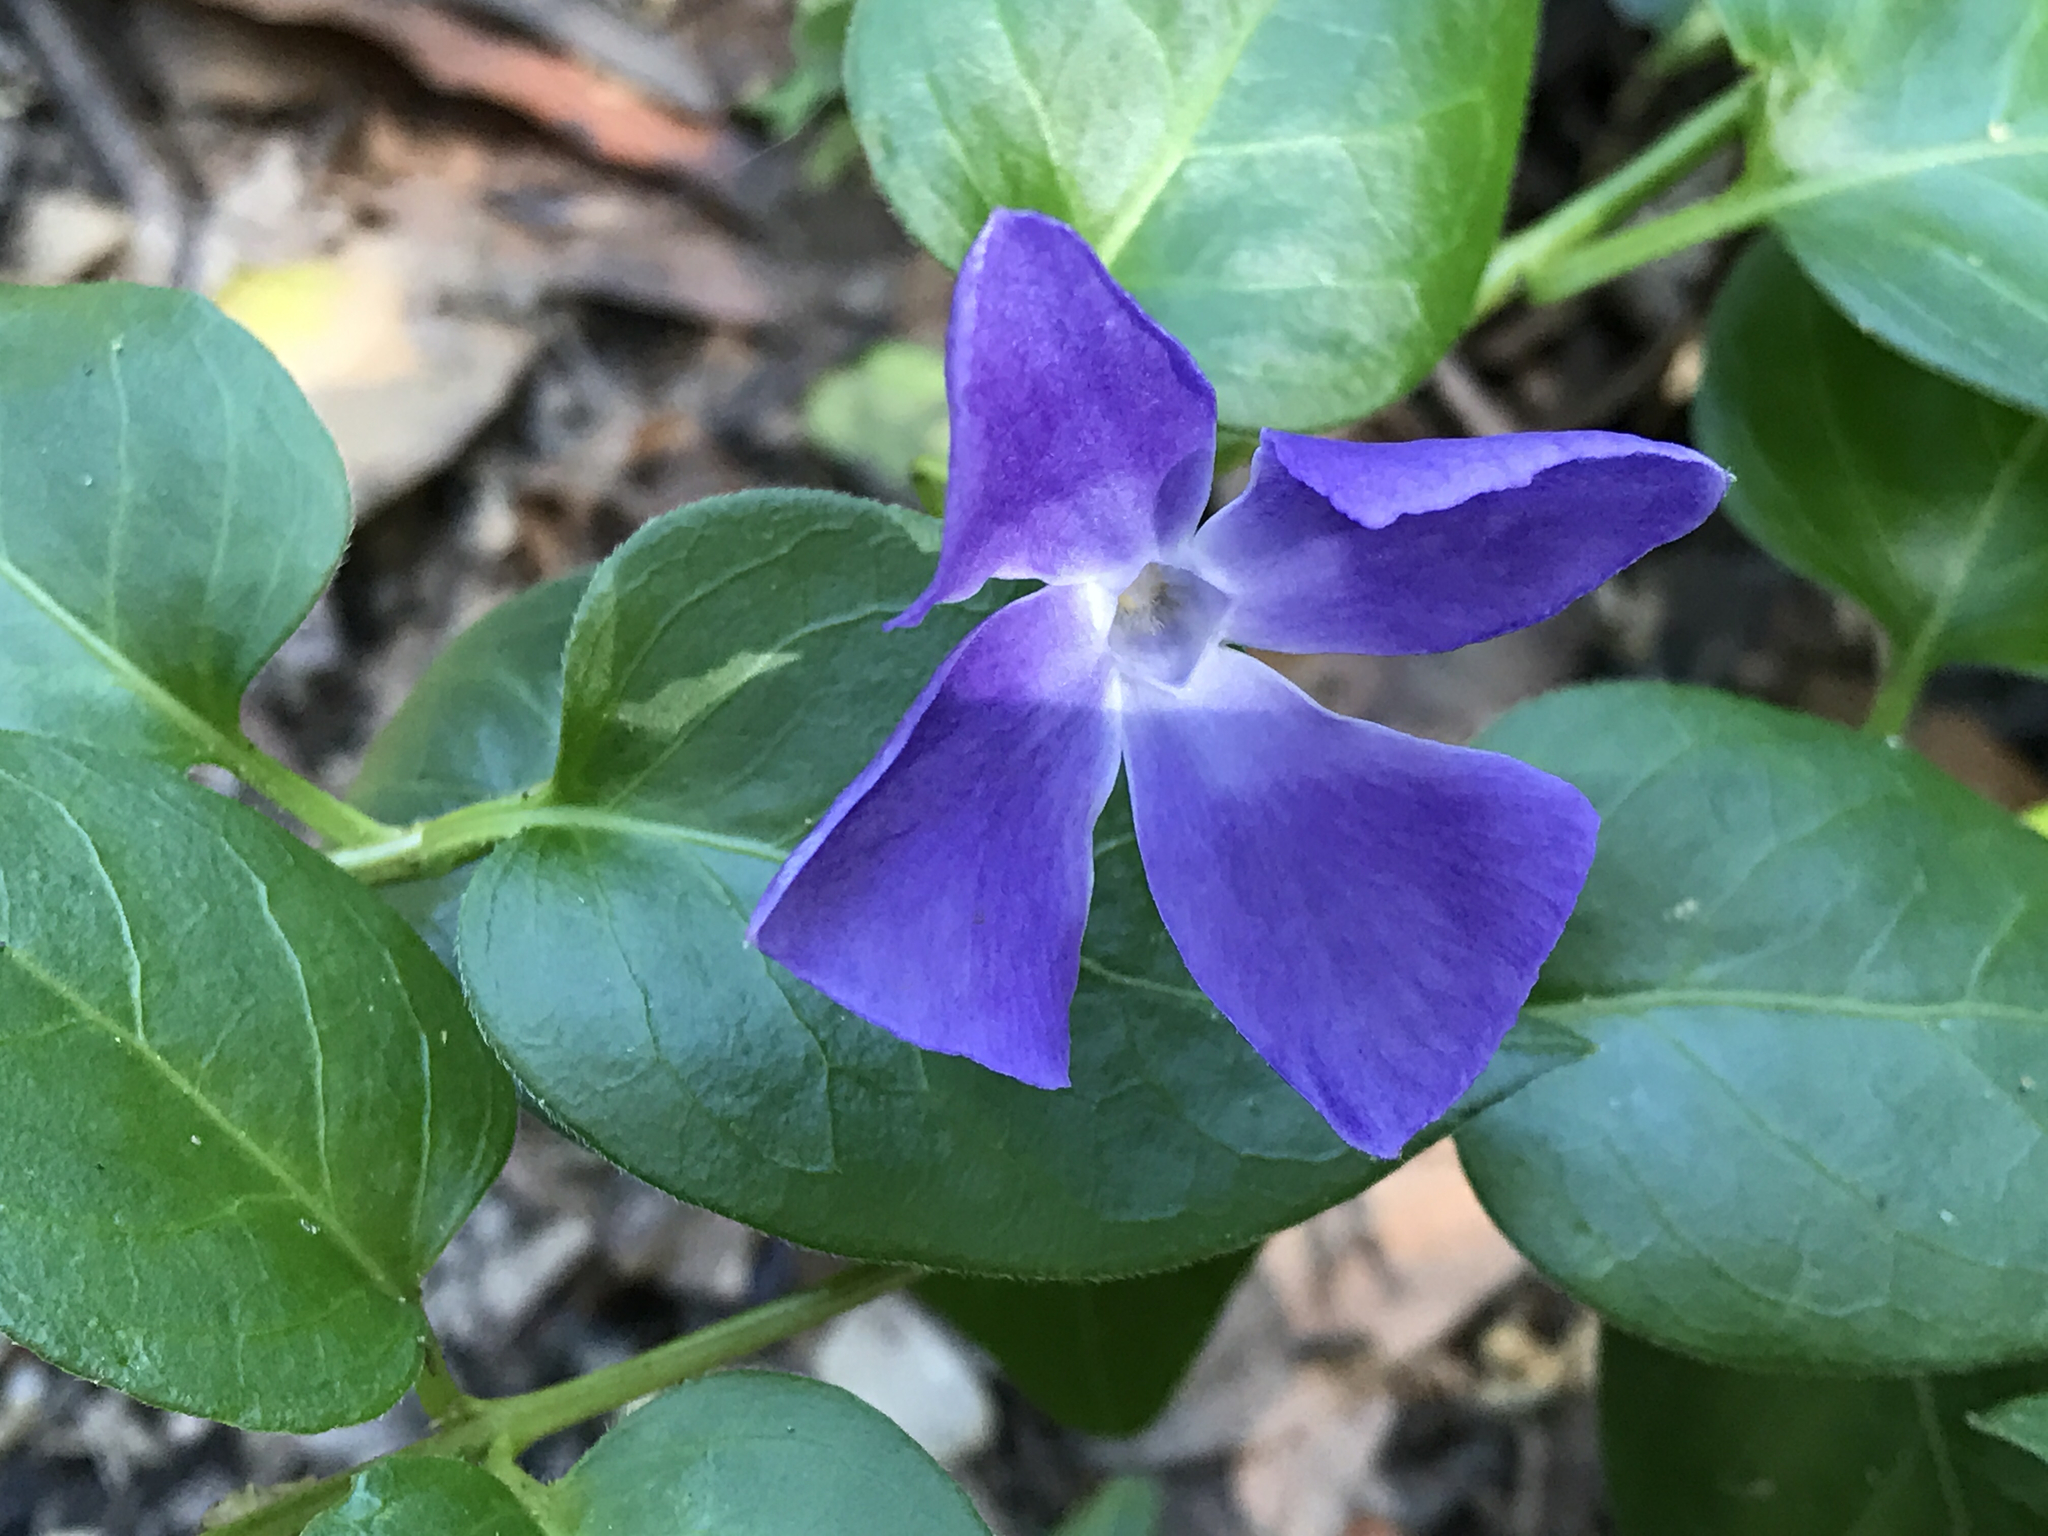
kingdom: Plantae
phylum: Tracheophyta
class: Magnoliopsida
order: Gentianales
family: Apocynaceae
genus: Vinca
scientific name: Vinca major
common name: Greater periwinkle
